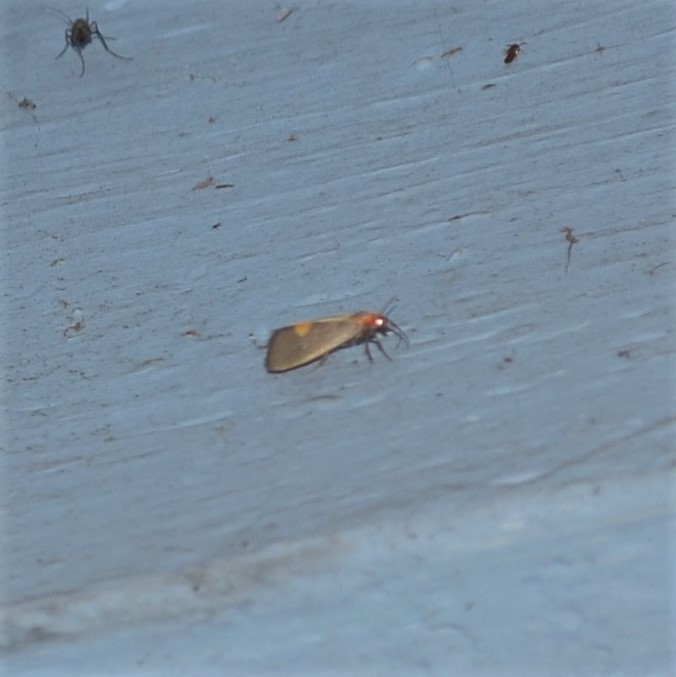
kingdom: Animalia
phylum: Arthropoda
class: Insecta
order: Lepidoptera
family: Erebidae
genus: Cisthene
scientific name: Cisthene plumbea
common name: Lead colored lichen moth
